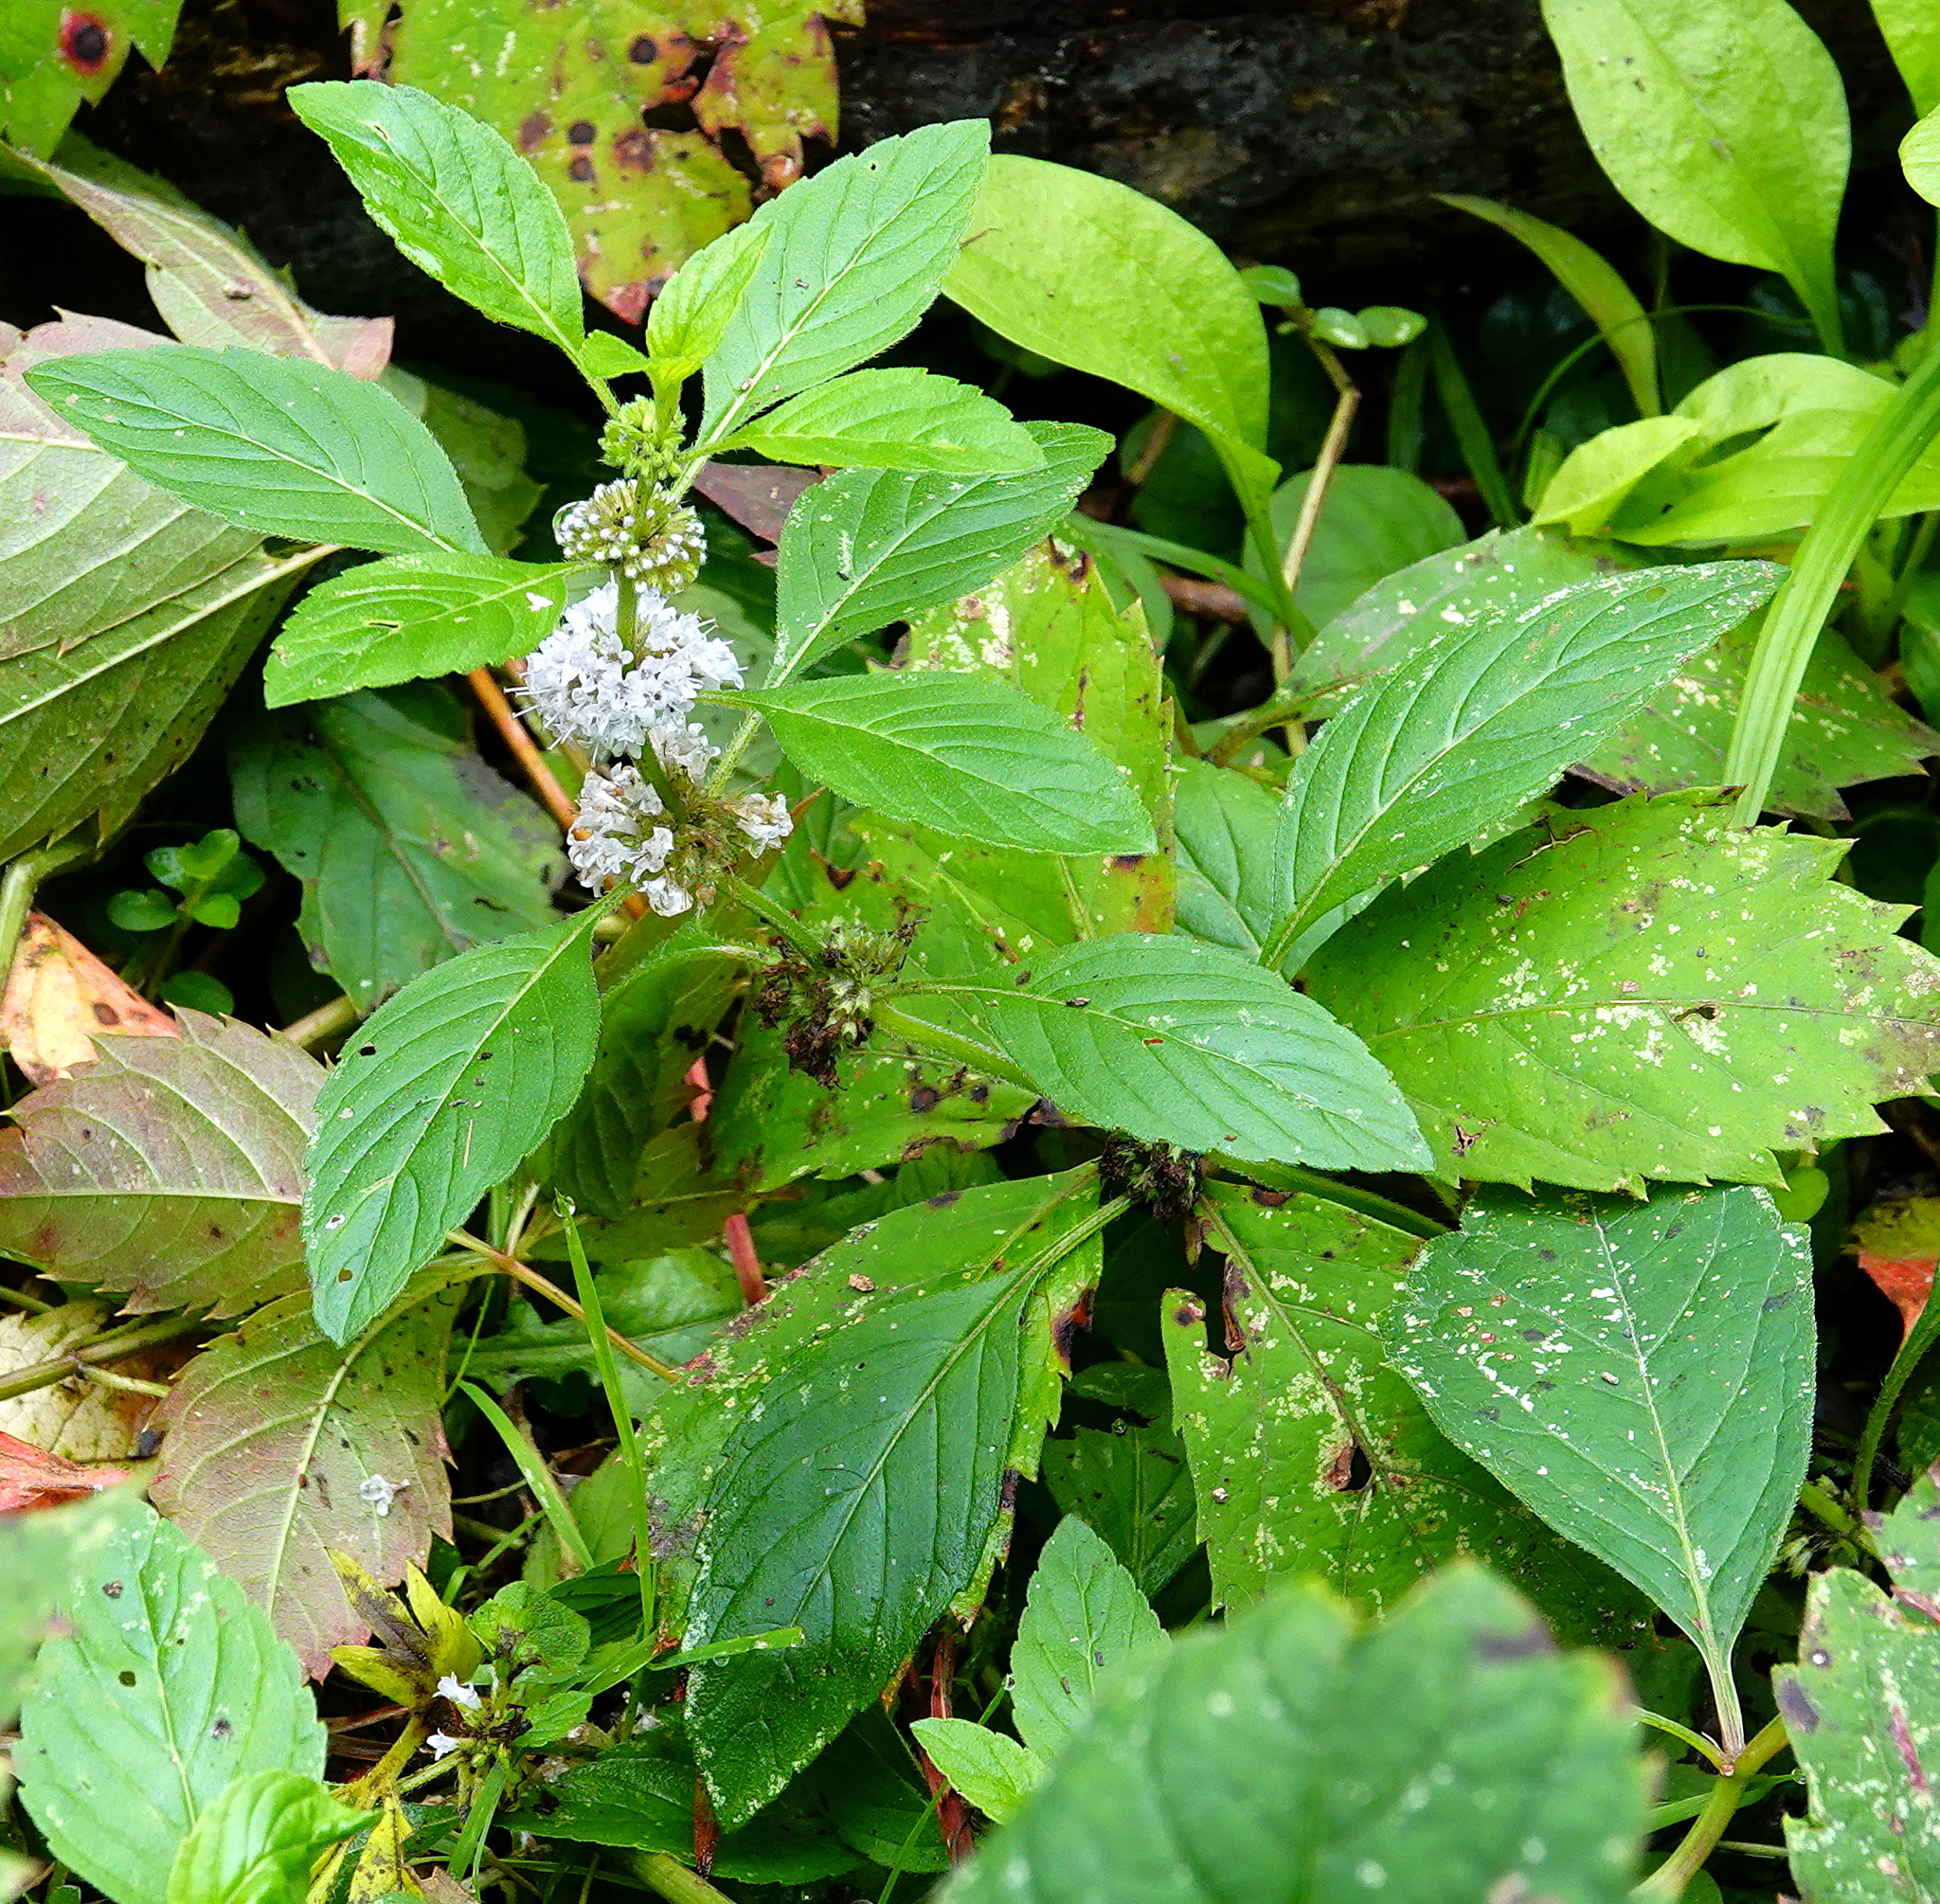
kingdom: Plantae
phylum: Tracheophyta
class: Magnoliopsida
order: Lamiales
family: Lamiaceae
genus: Mentha
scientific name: Mentha canadensis
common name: American corn mint
